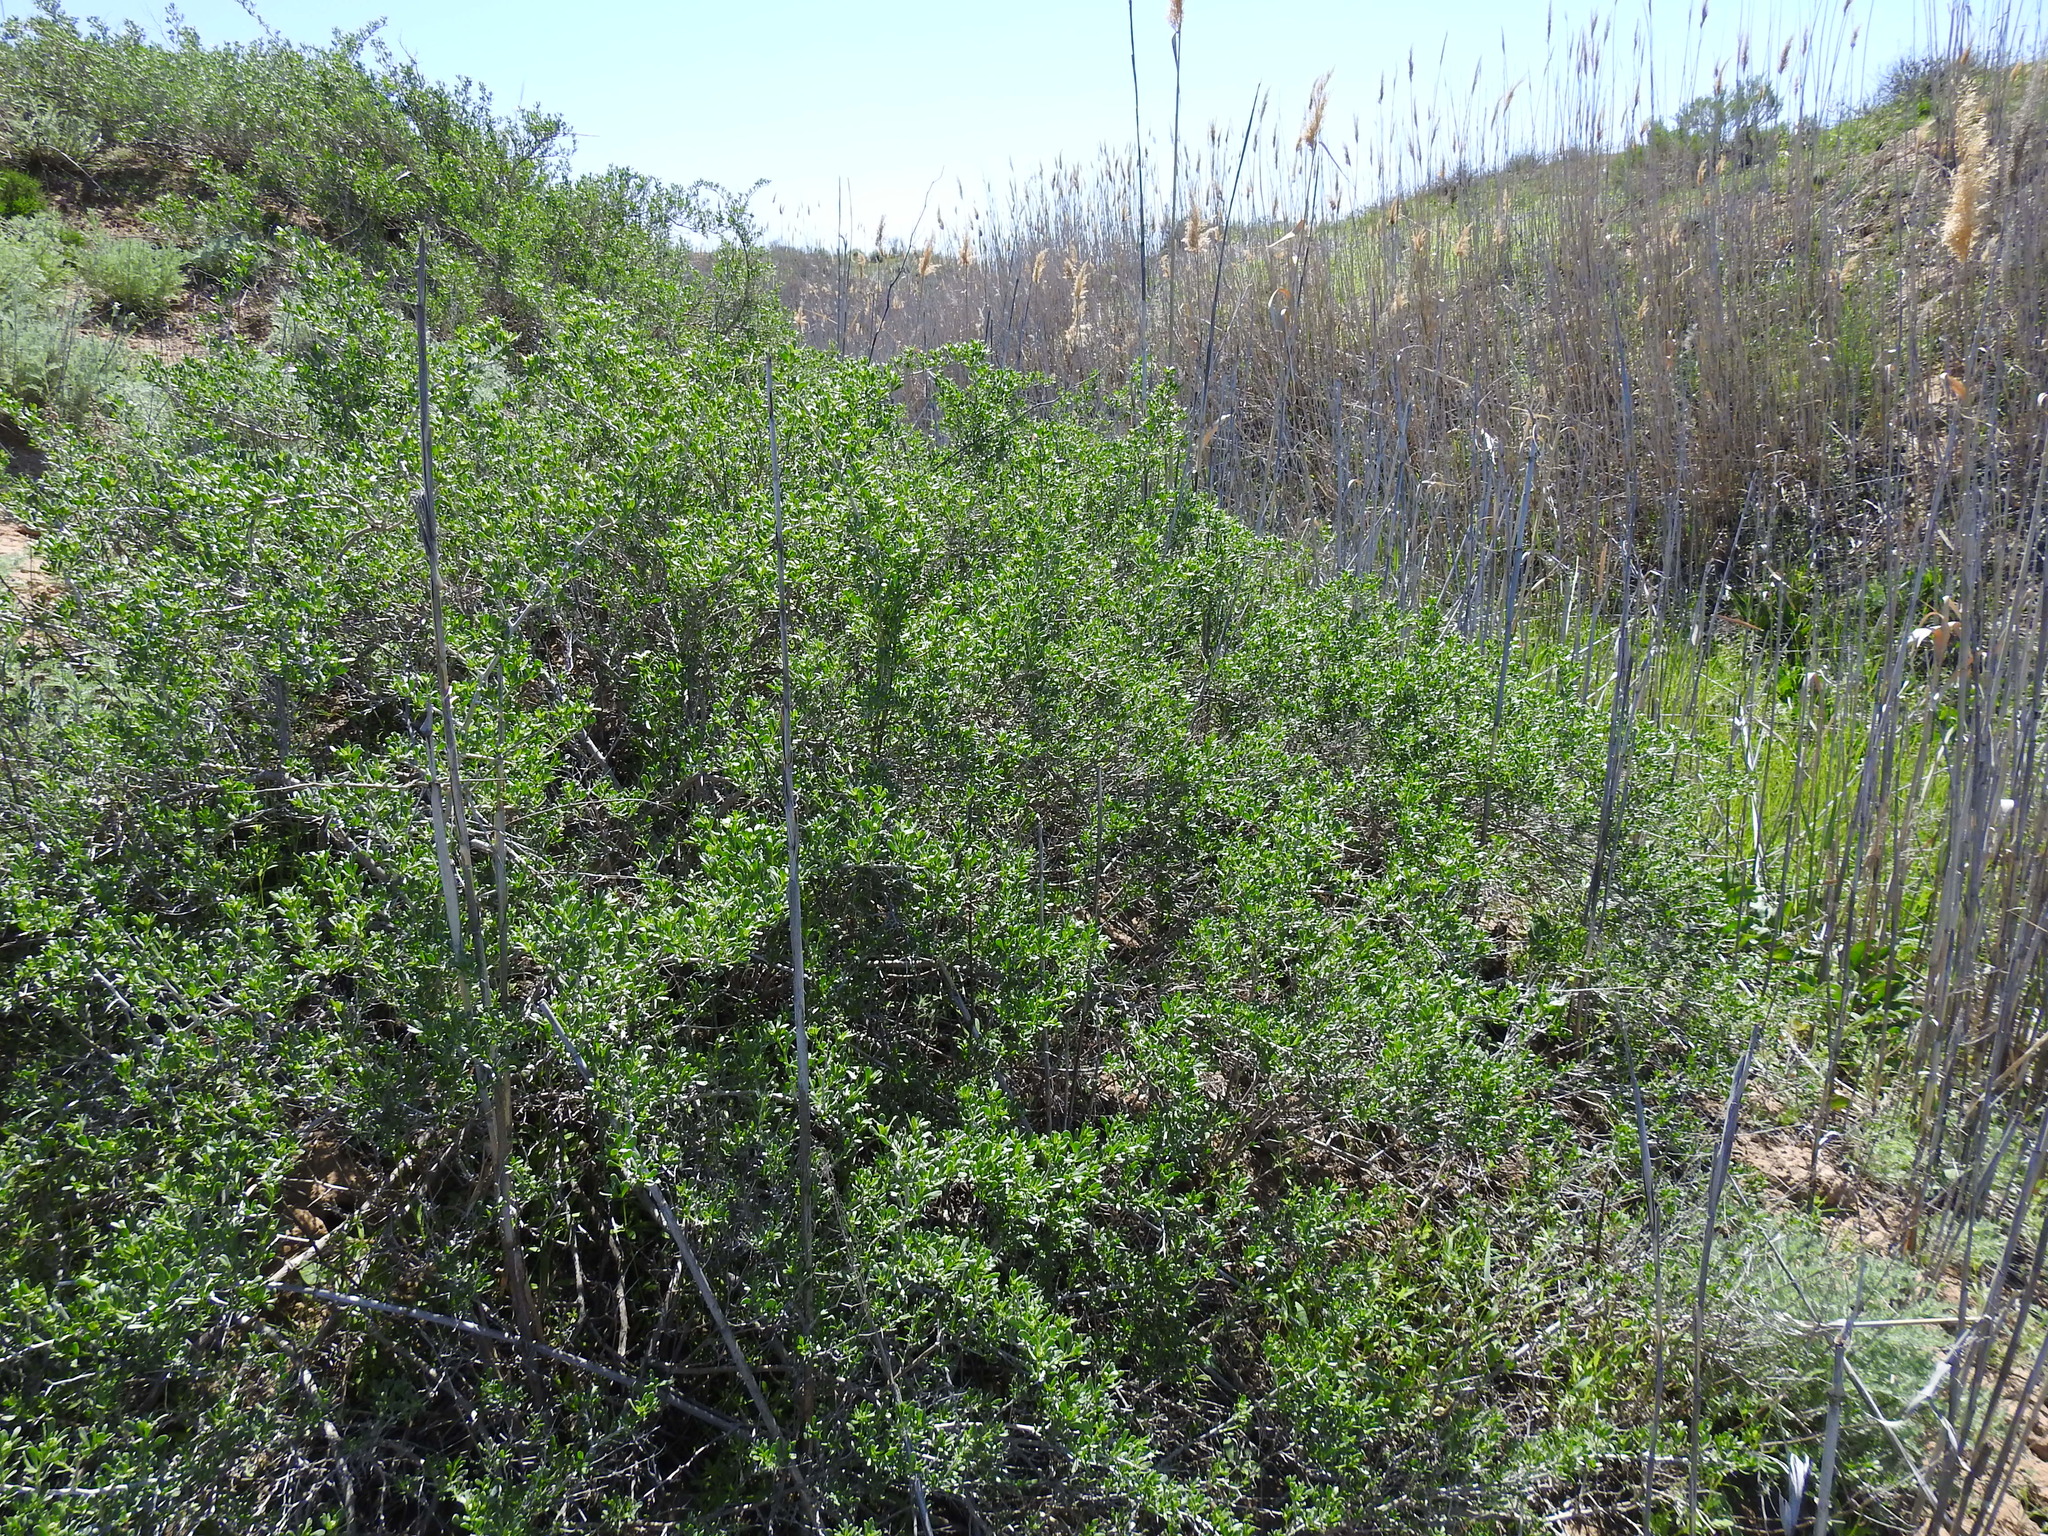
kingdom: Plantae
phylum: Tracheophyta
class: Magnoliopsida
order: Sapindales
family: Nitrariaceae
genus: Nitraria
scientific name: Nitraria schoberi
